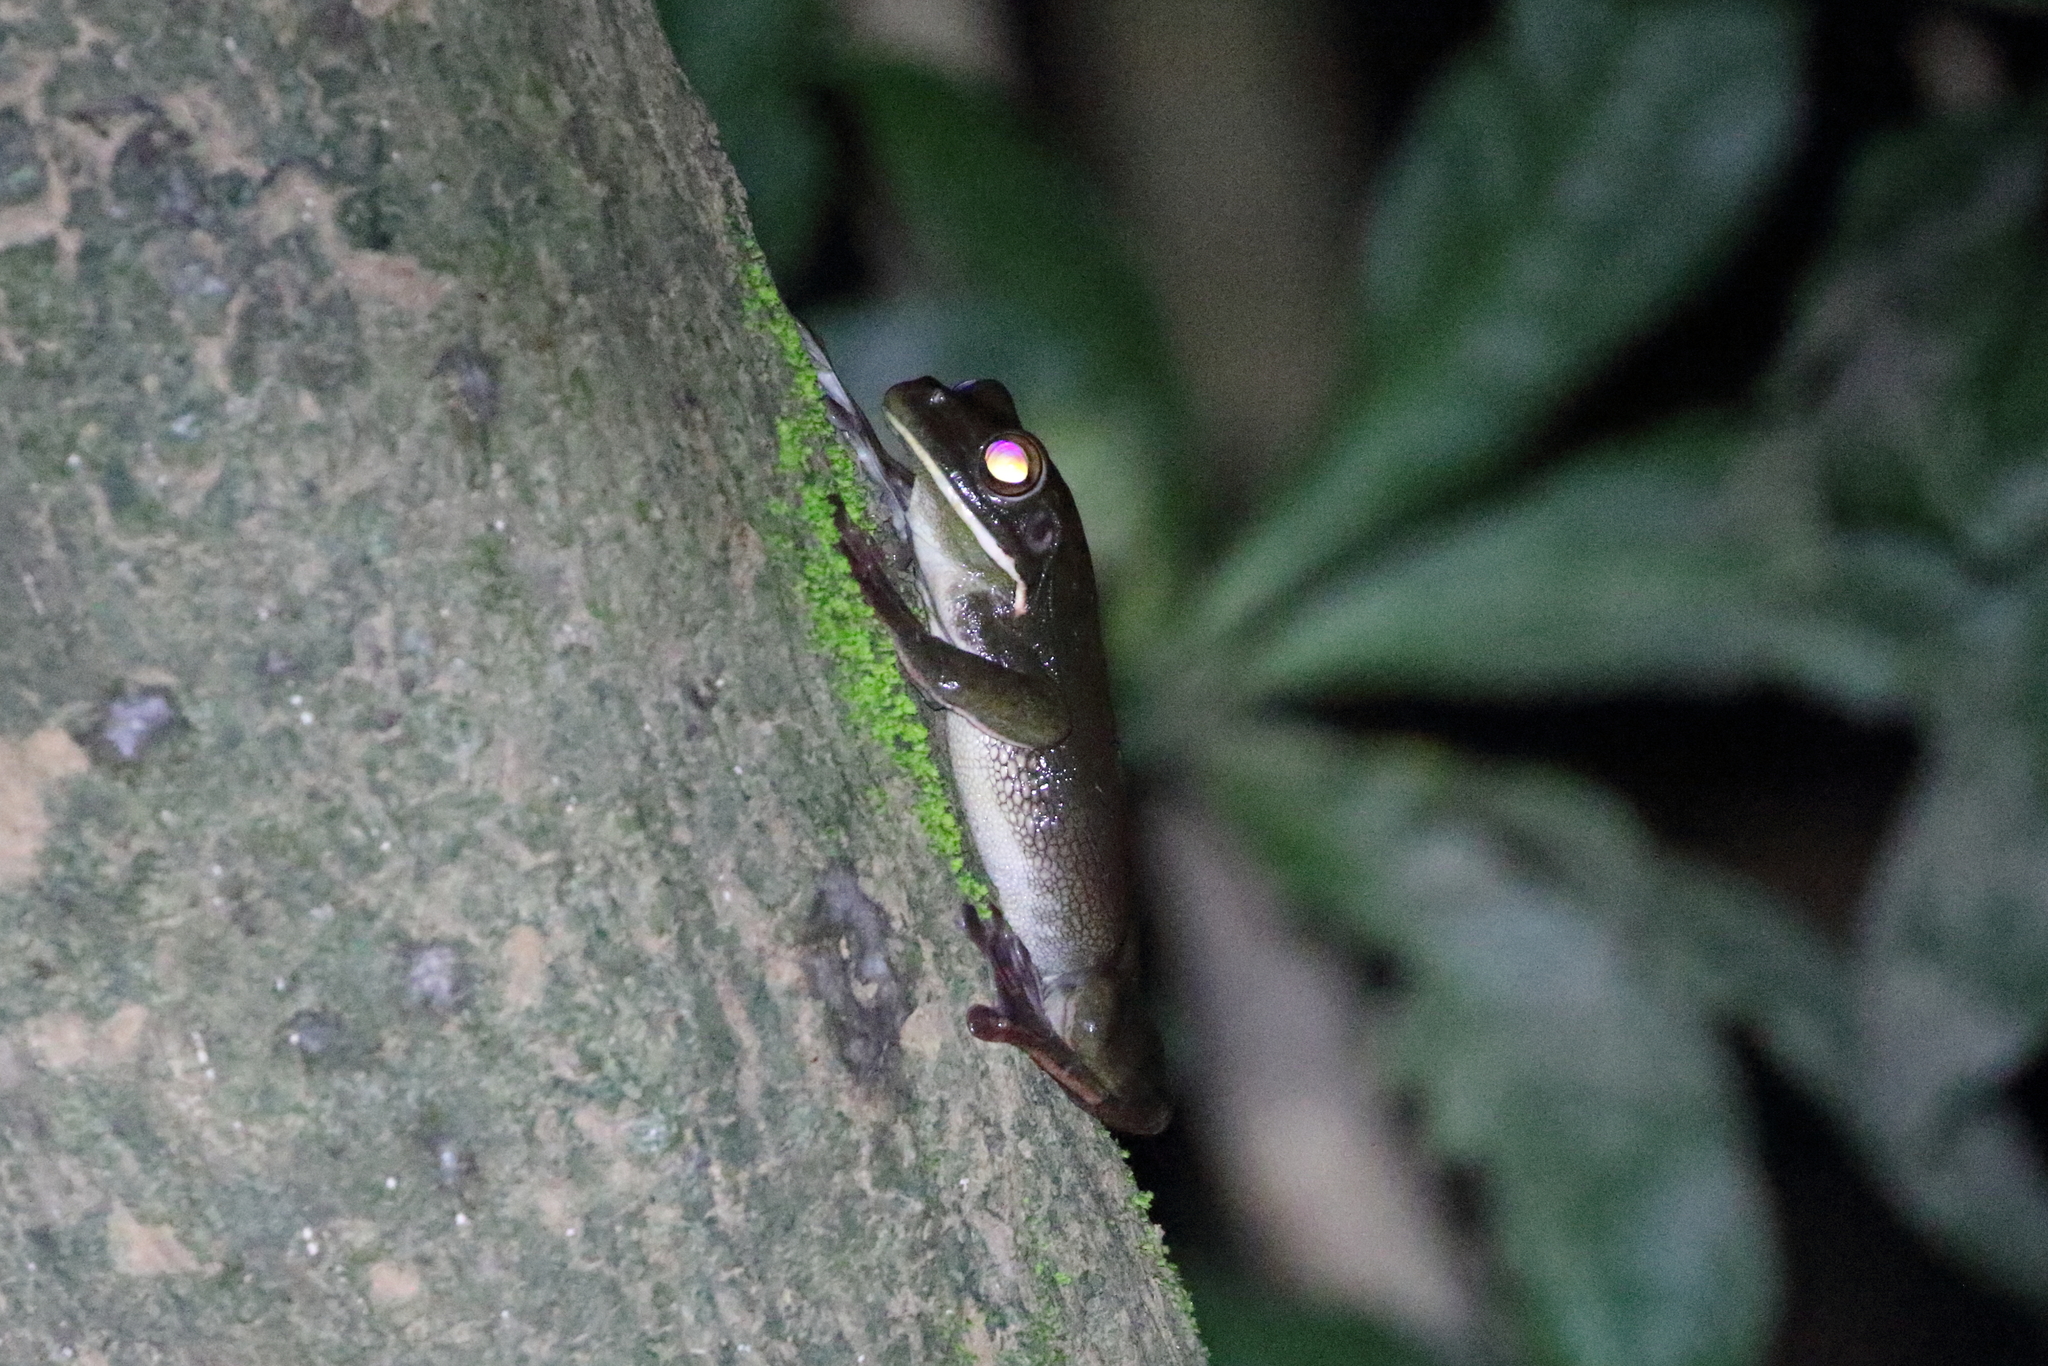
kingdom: Animalia
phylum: Chordata
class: Amphibia
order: Anura
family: Pelodryadidae
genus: Nyctimystes
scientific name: Nyctimystes infrafrenatus
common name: Australian giant treefrog
